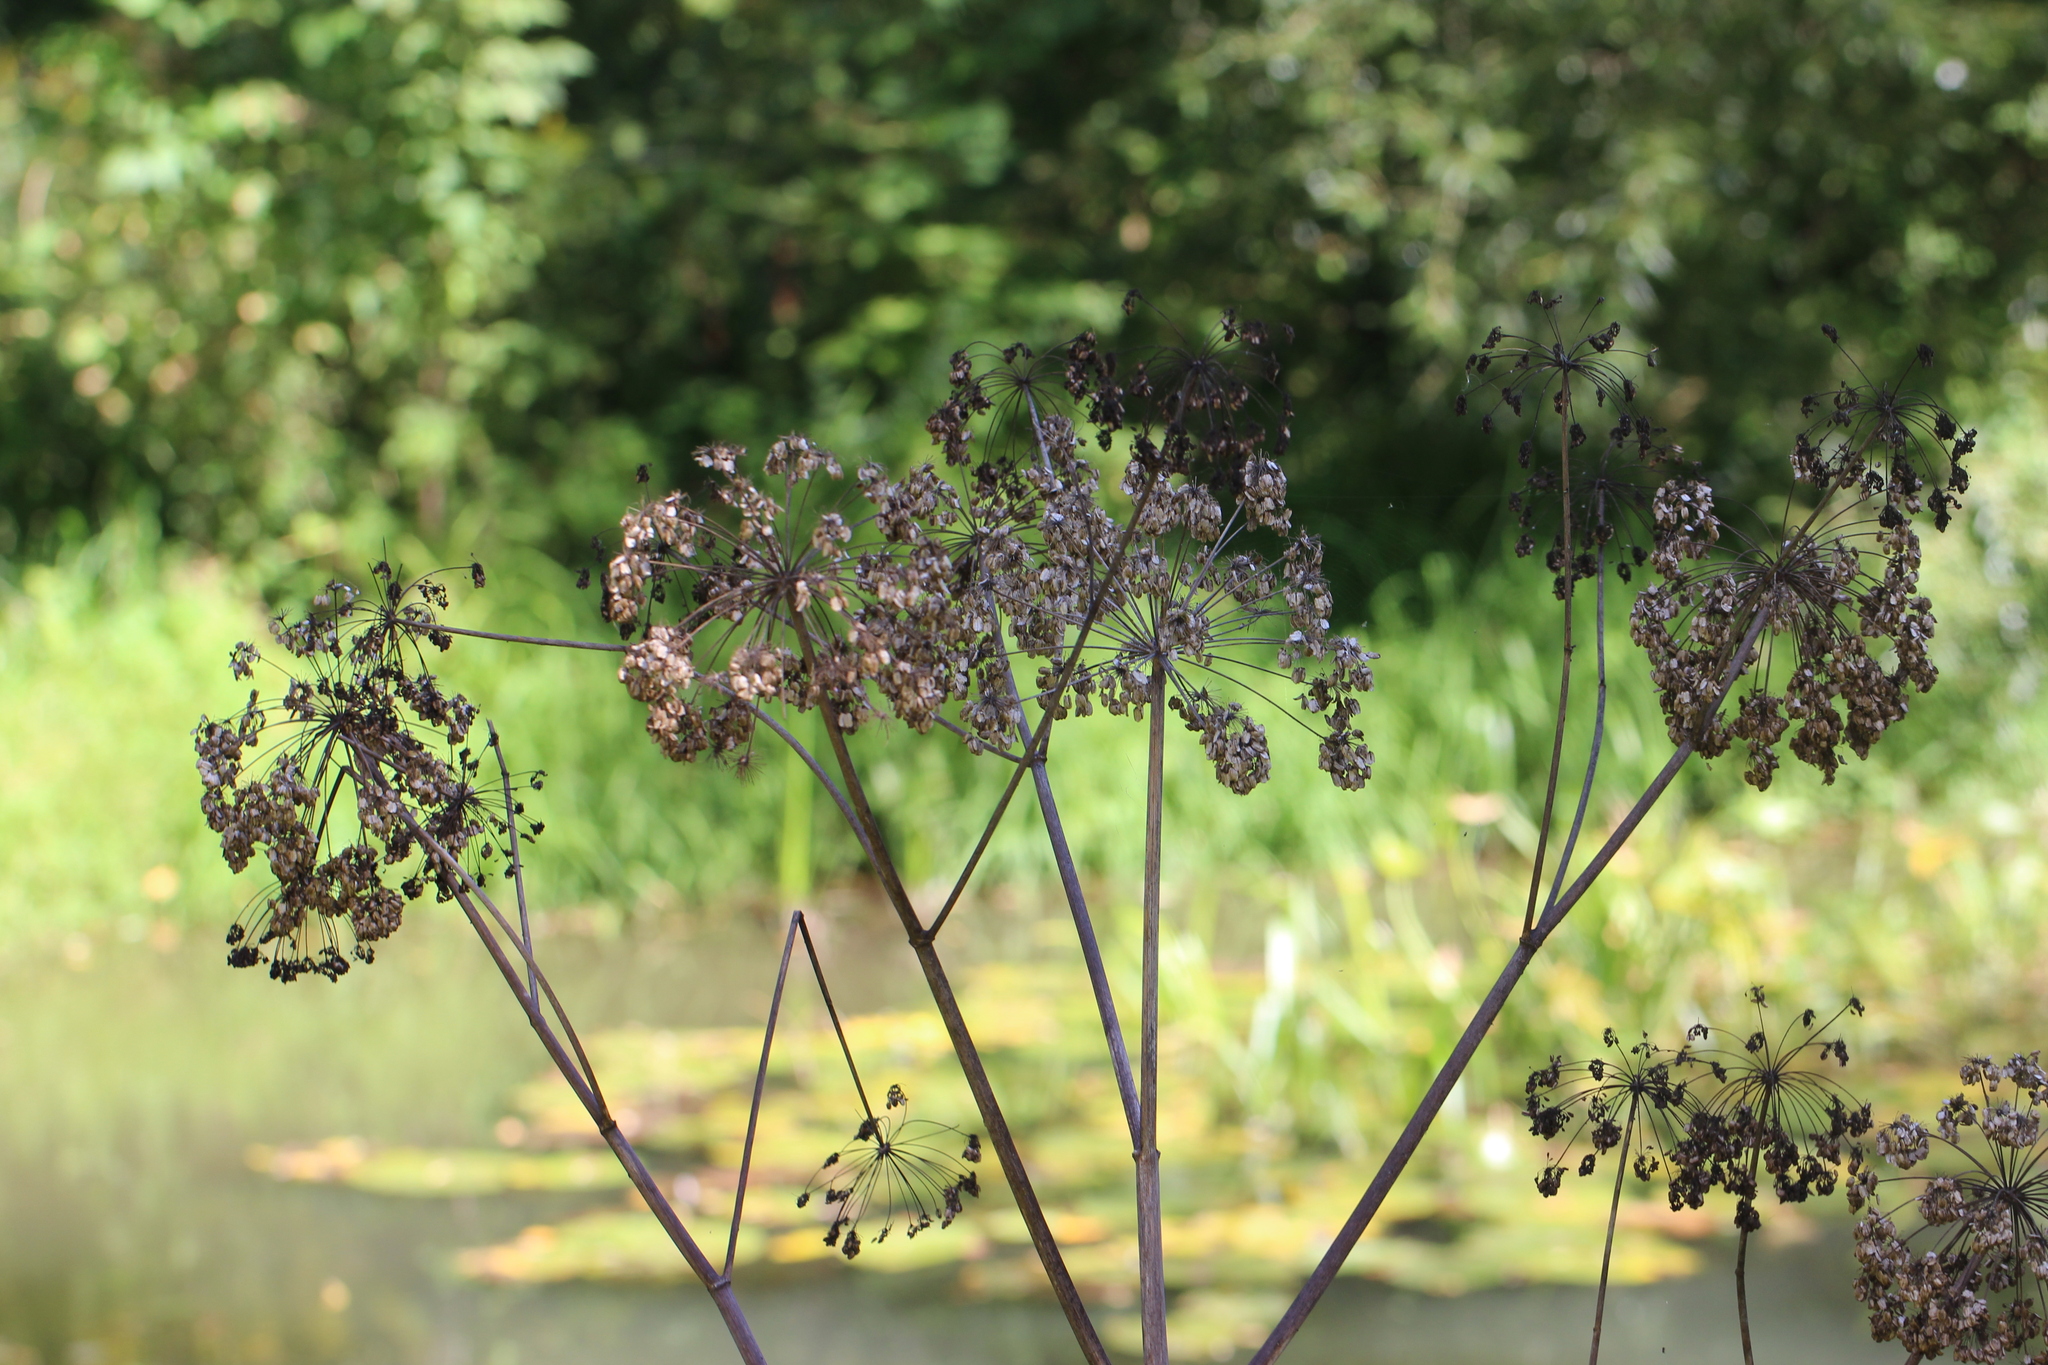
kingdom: Plantae
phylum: Tracheophyta
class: Magnoliopsida
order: Apiales
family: Apiaceae
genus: Angelica
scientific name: Angelica archangelica
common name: Garden angelica
